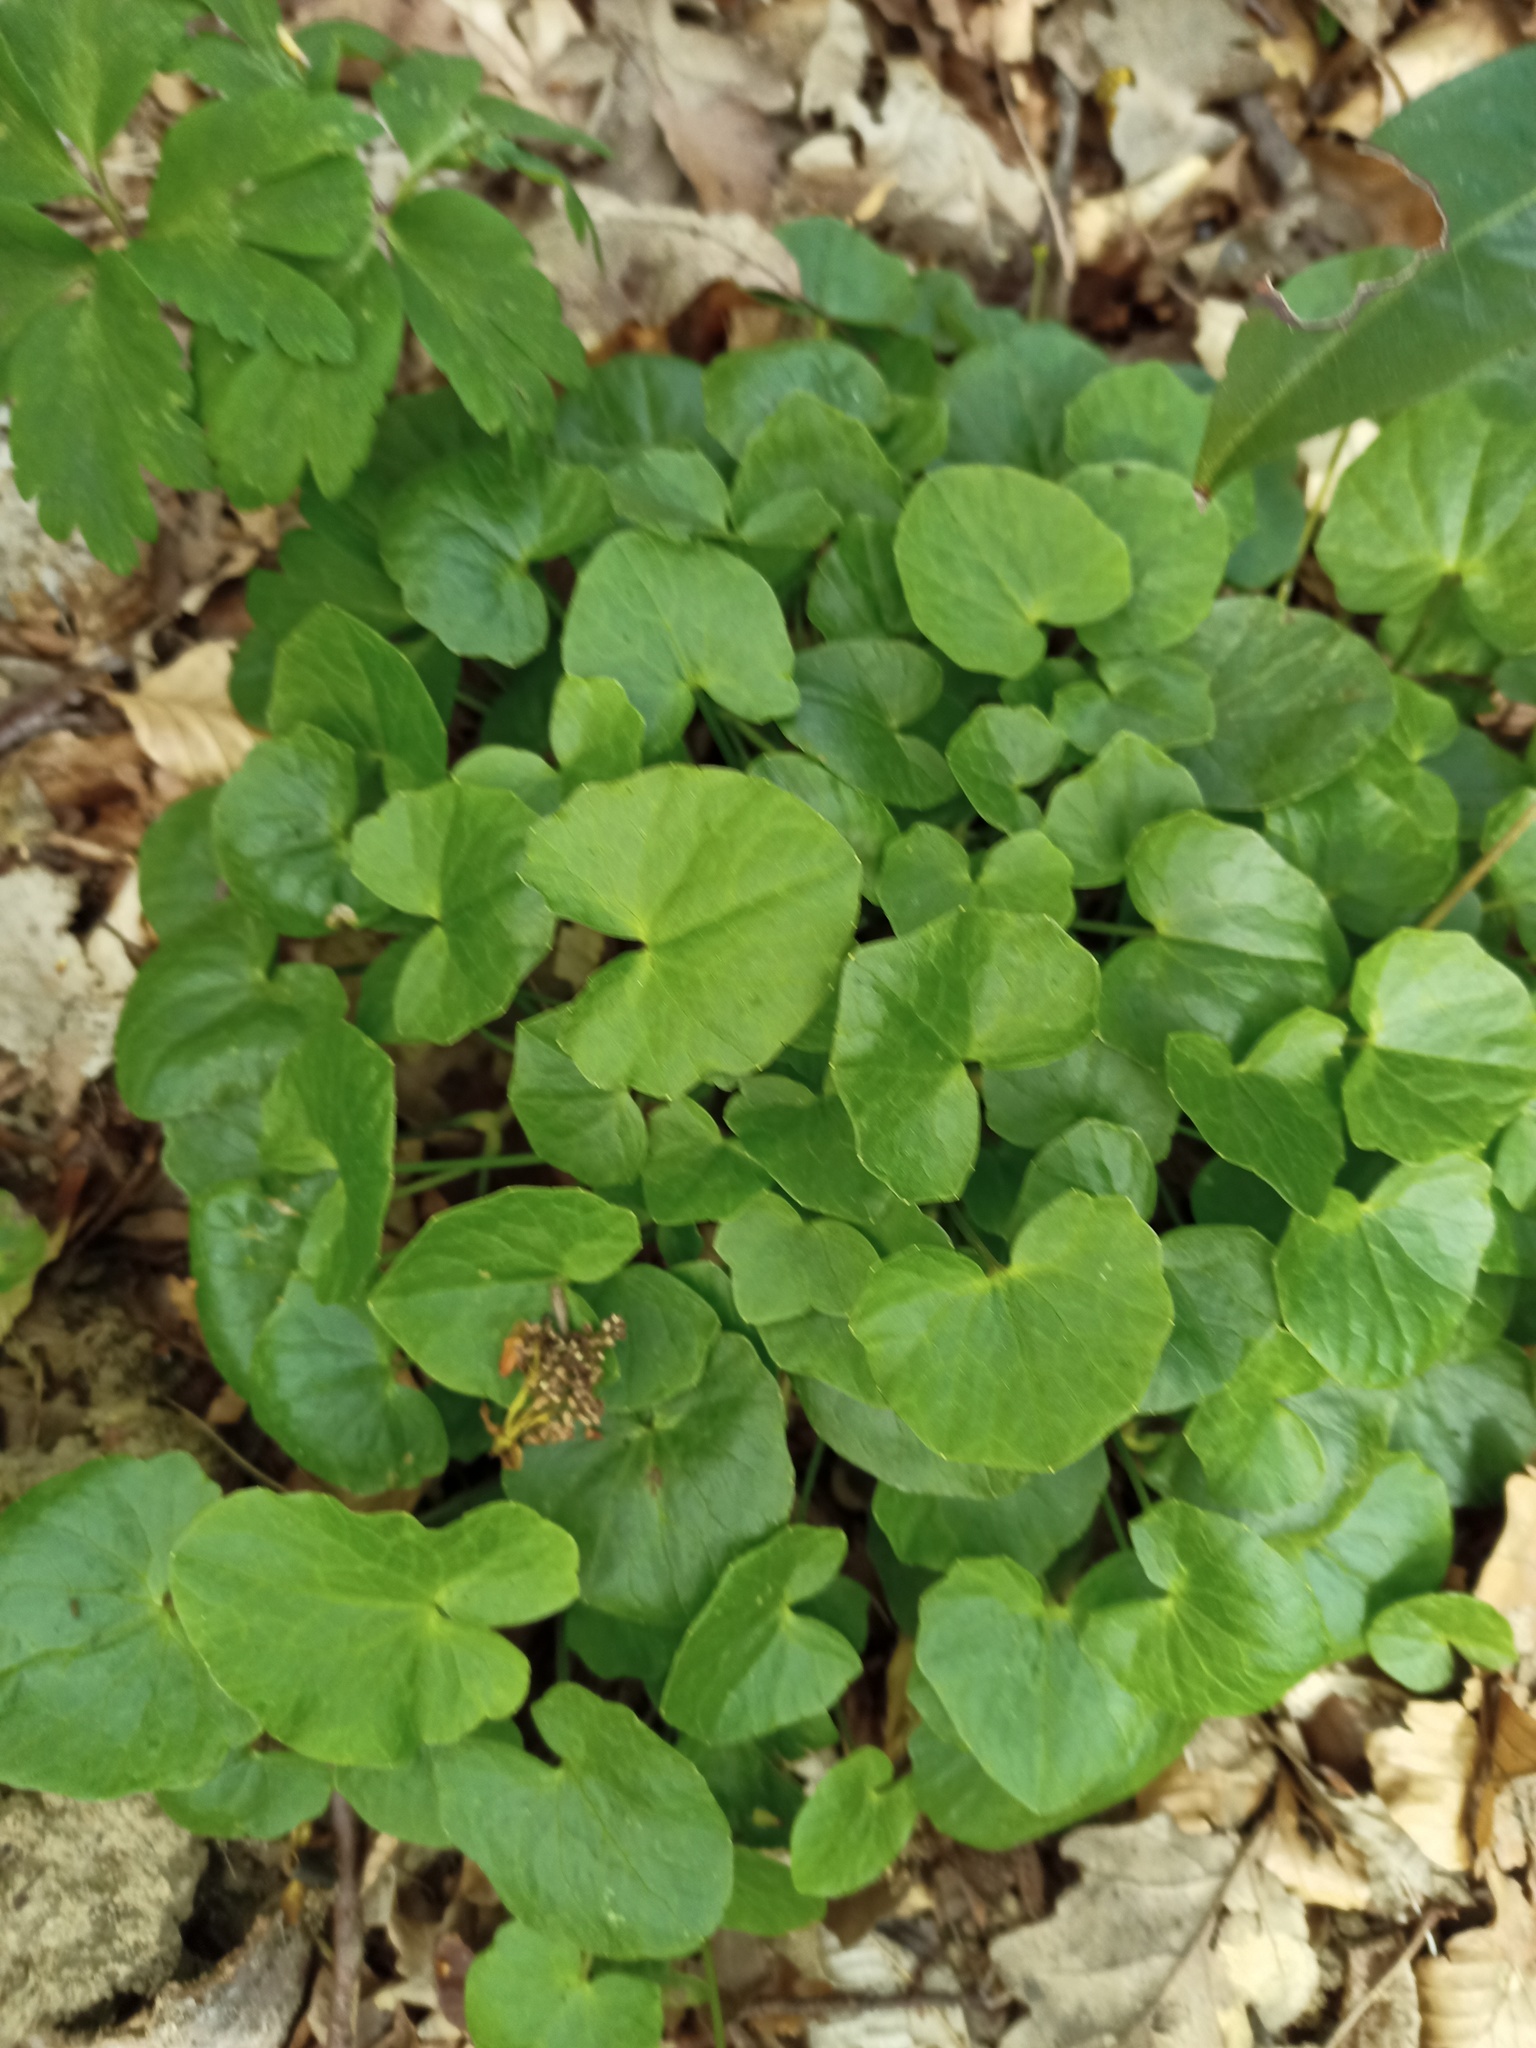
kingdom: Plantae
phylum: Tracheophyta
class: Magnoliopsida
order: Ranunculales
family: Ranunculaceae
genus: Ficaria
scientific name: Ficaria verna
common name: Lesser celandine
